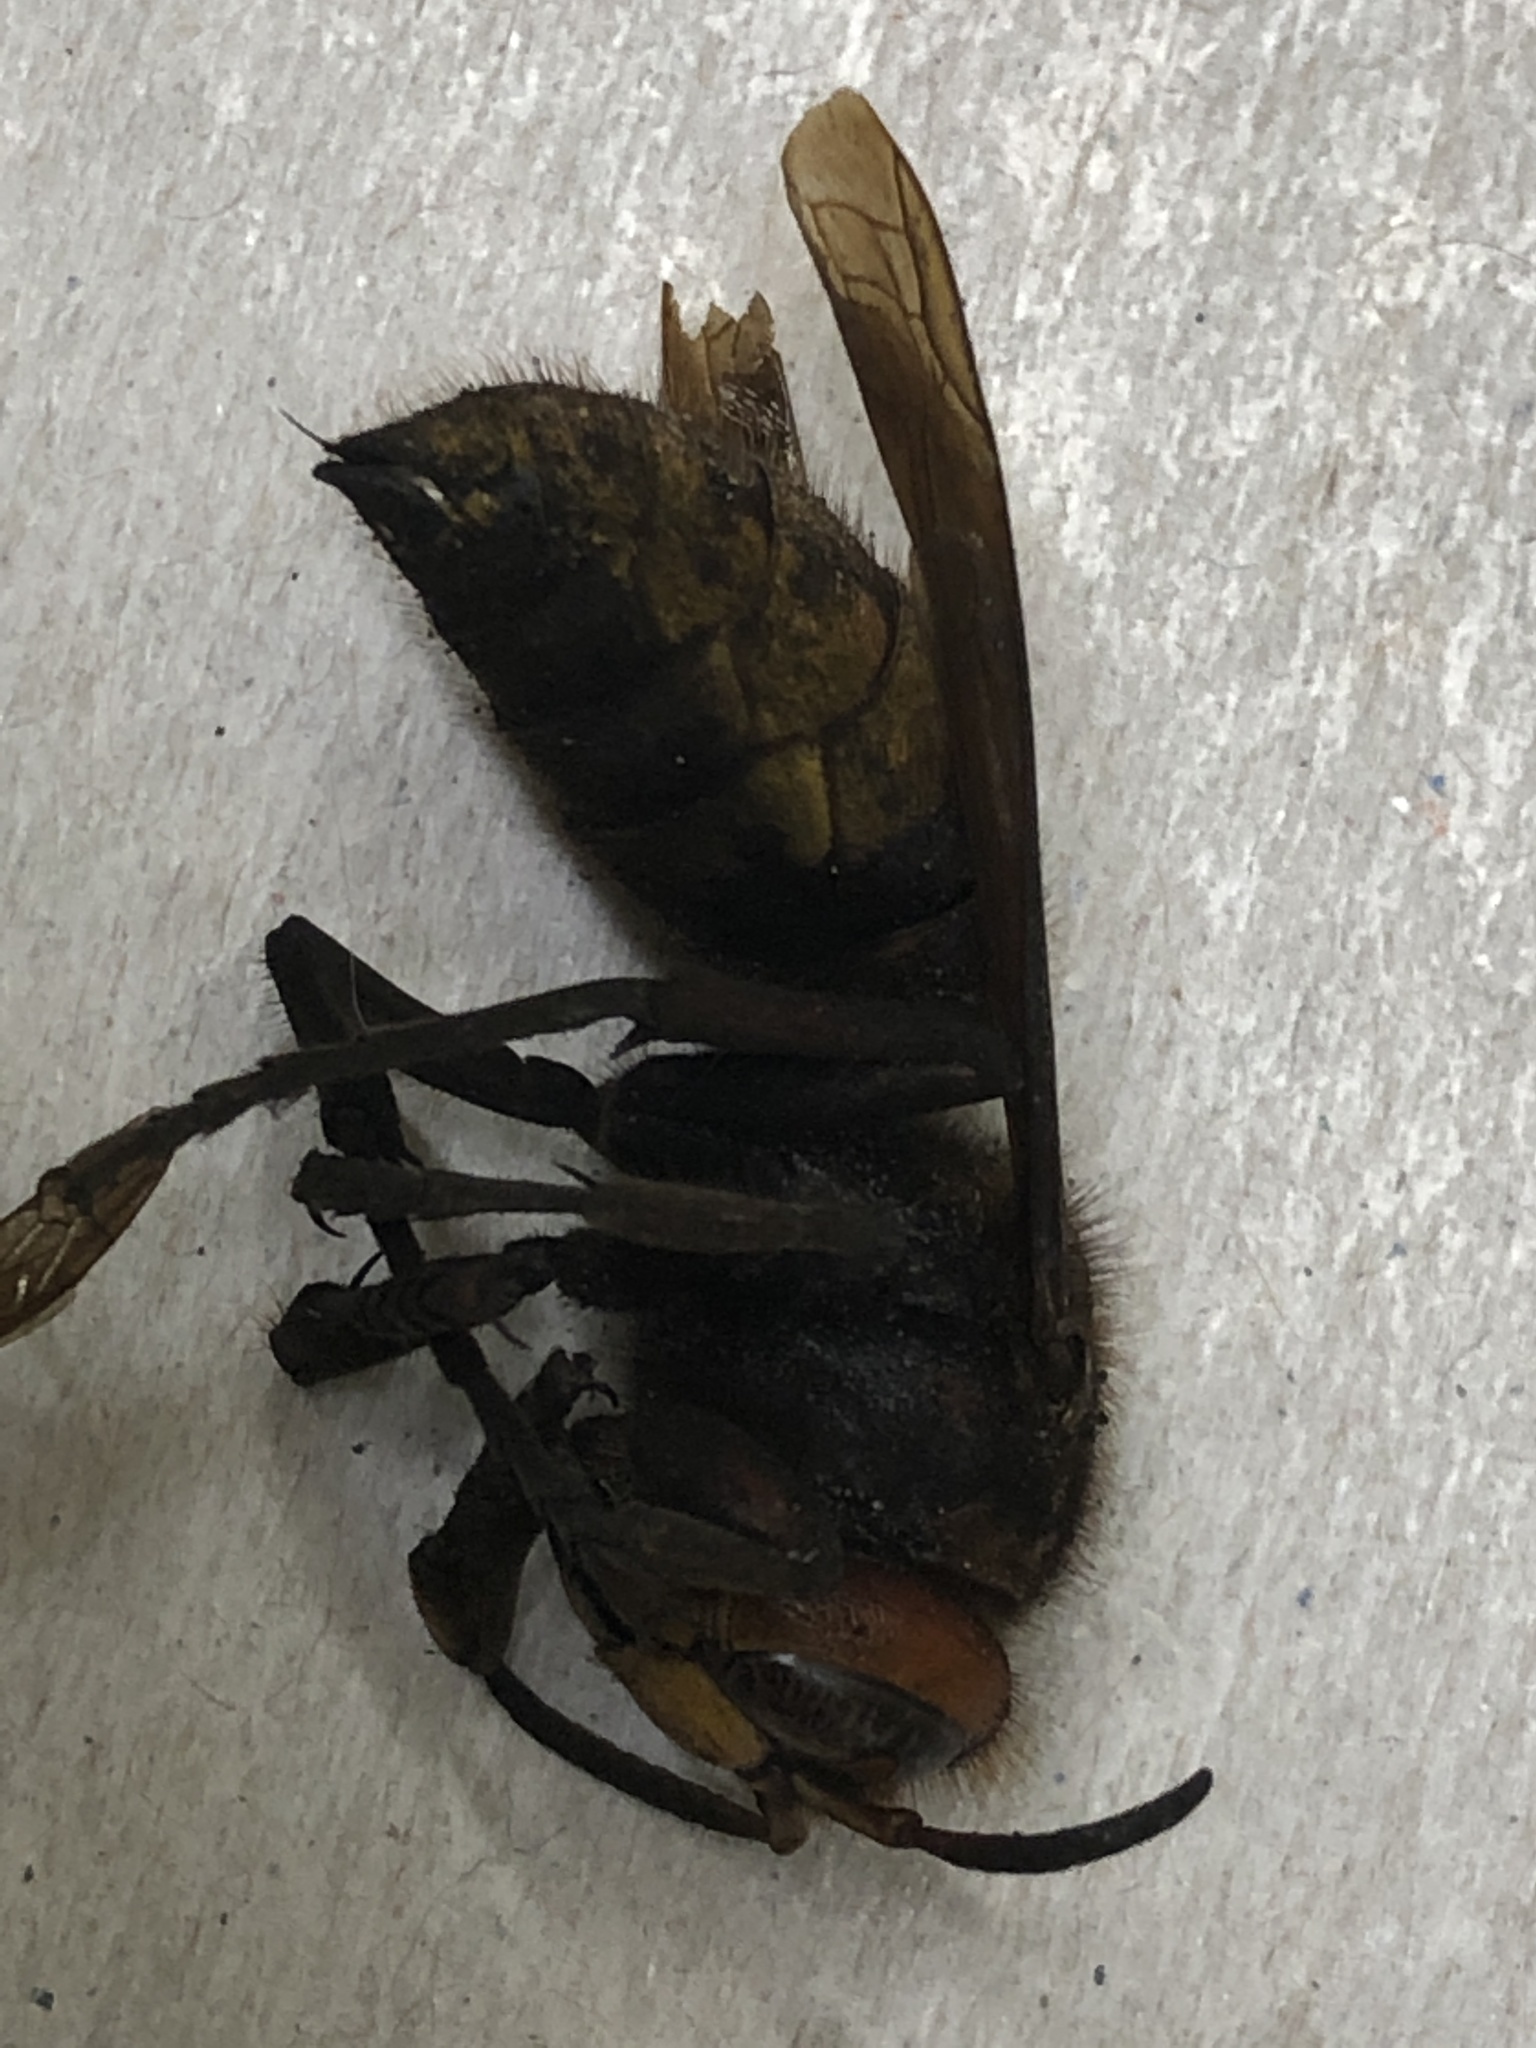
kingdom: Animalia
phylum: Arthropoda
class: Insecta
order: Hymenoptera
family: Vespidae
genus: Vespa
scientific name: Vespa crabro
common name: Hornet
